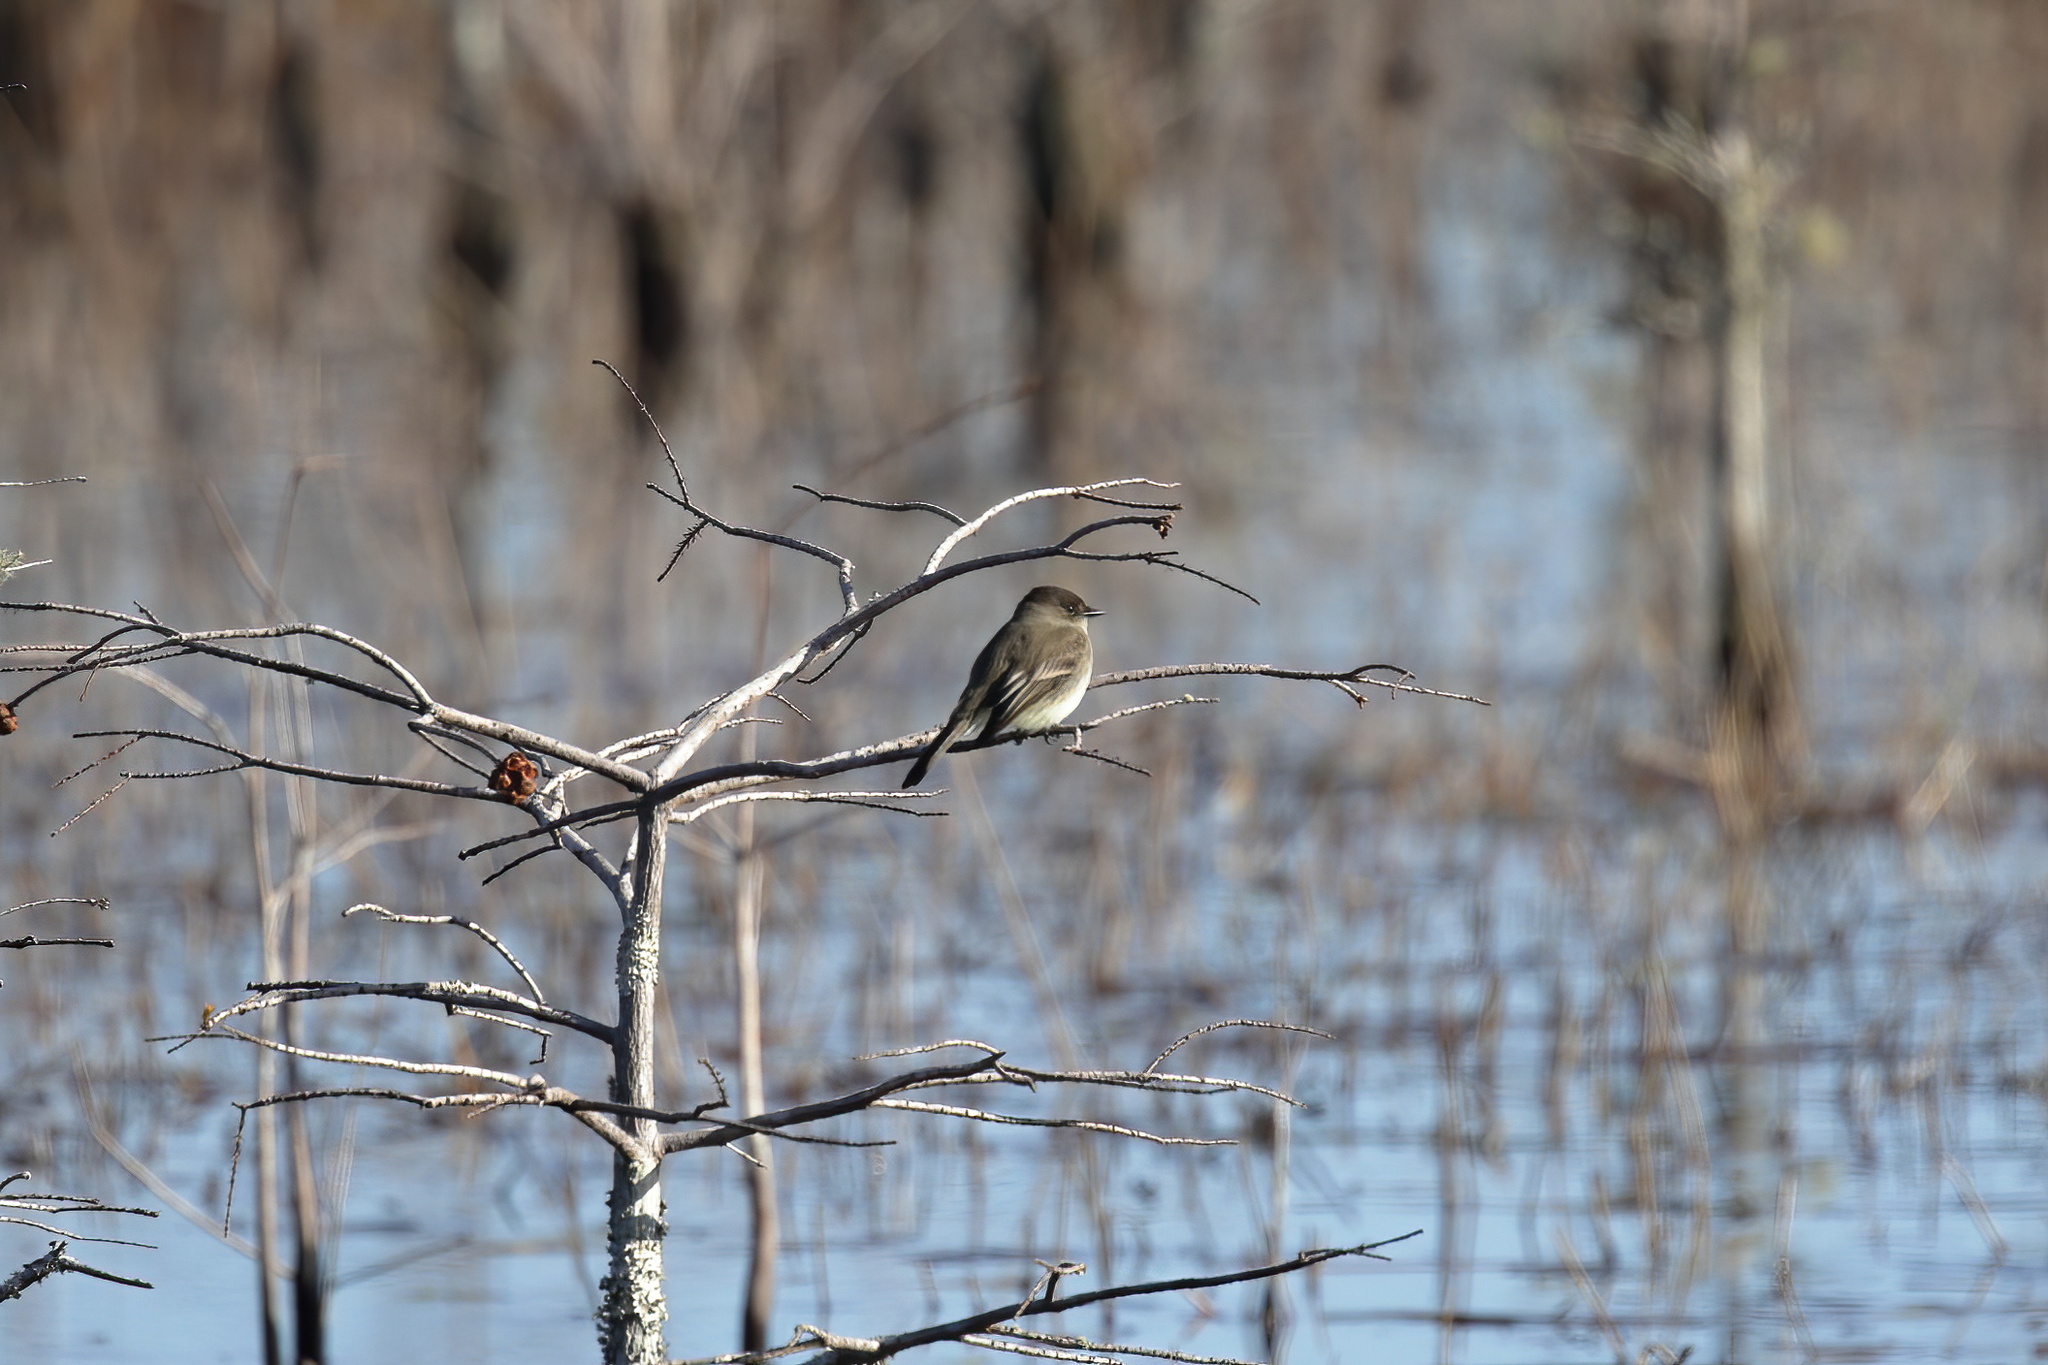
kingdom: Animalia
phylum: Chordata
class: Aves
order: Passeriformes
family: Tyrannidae
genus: Sayornis
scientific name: Sayornis phoebe
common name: Eastern phoebe
